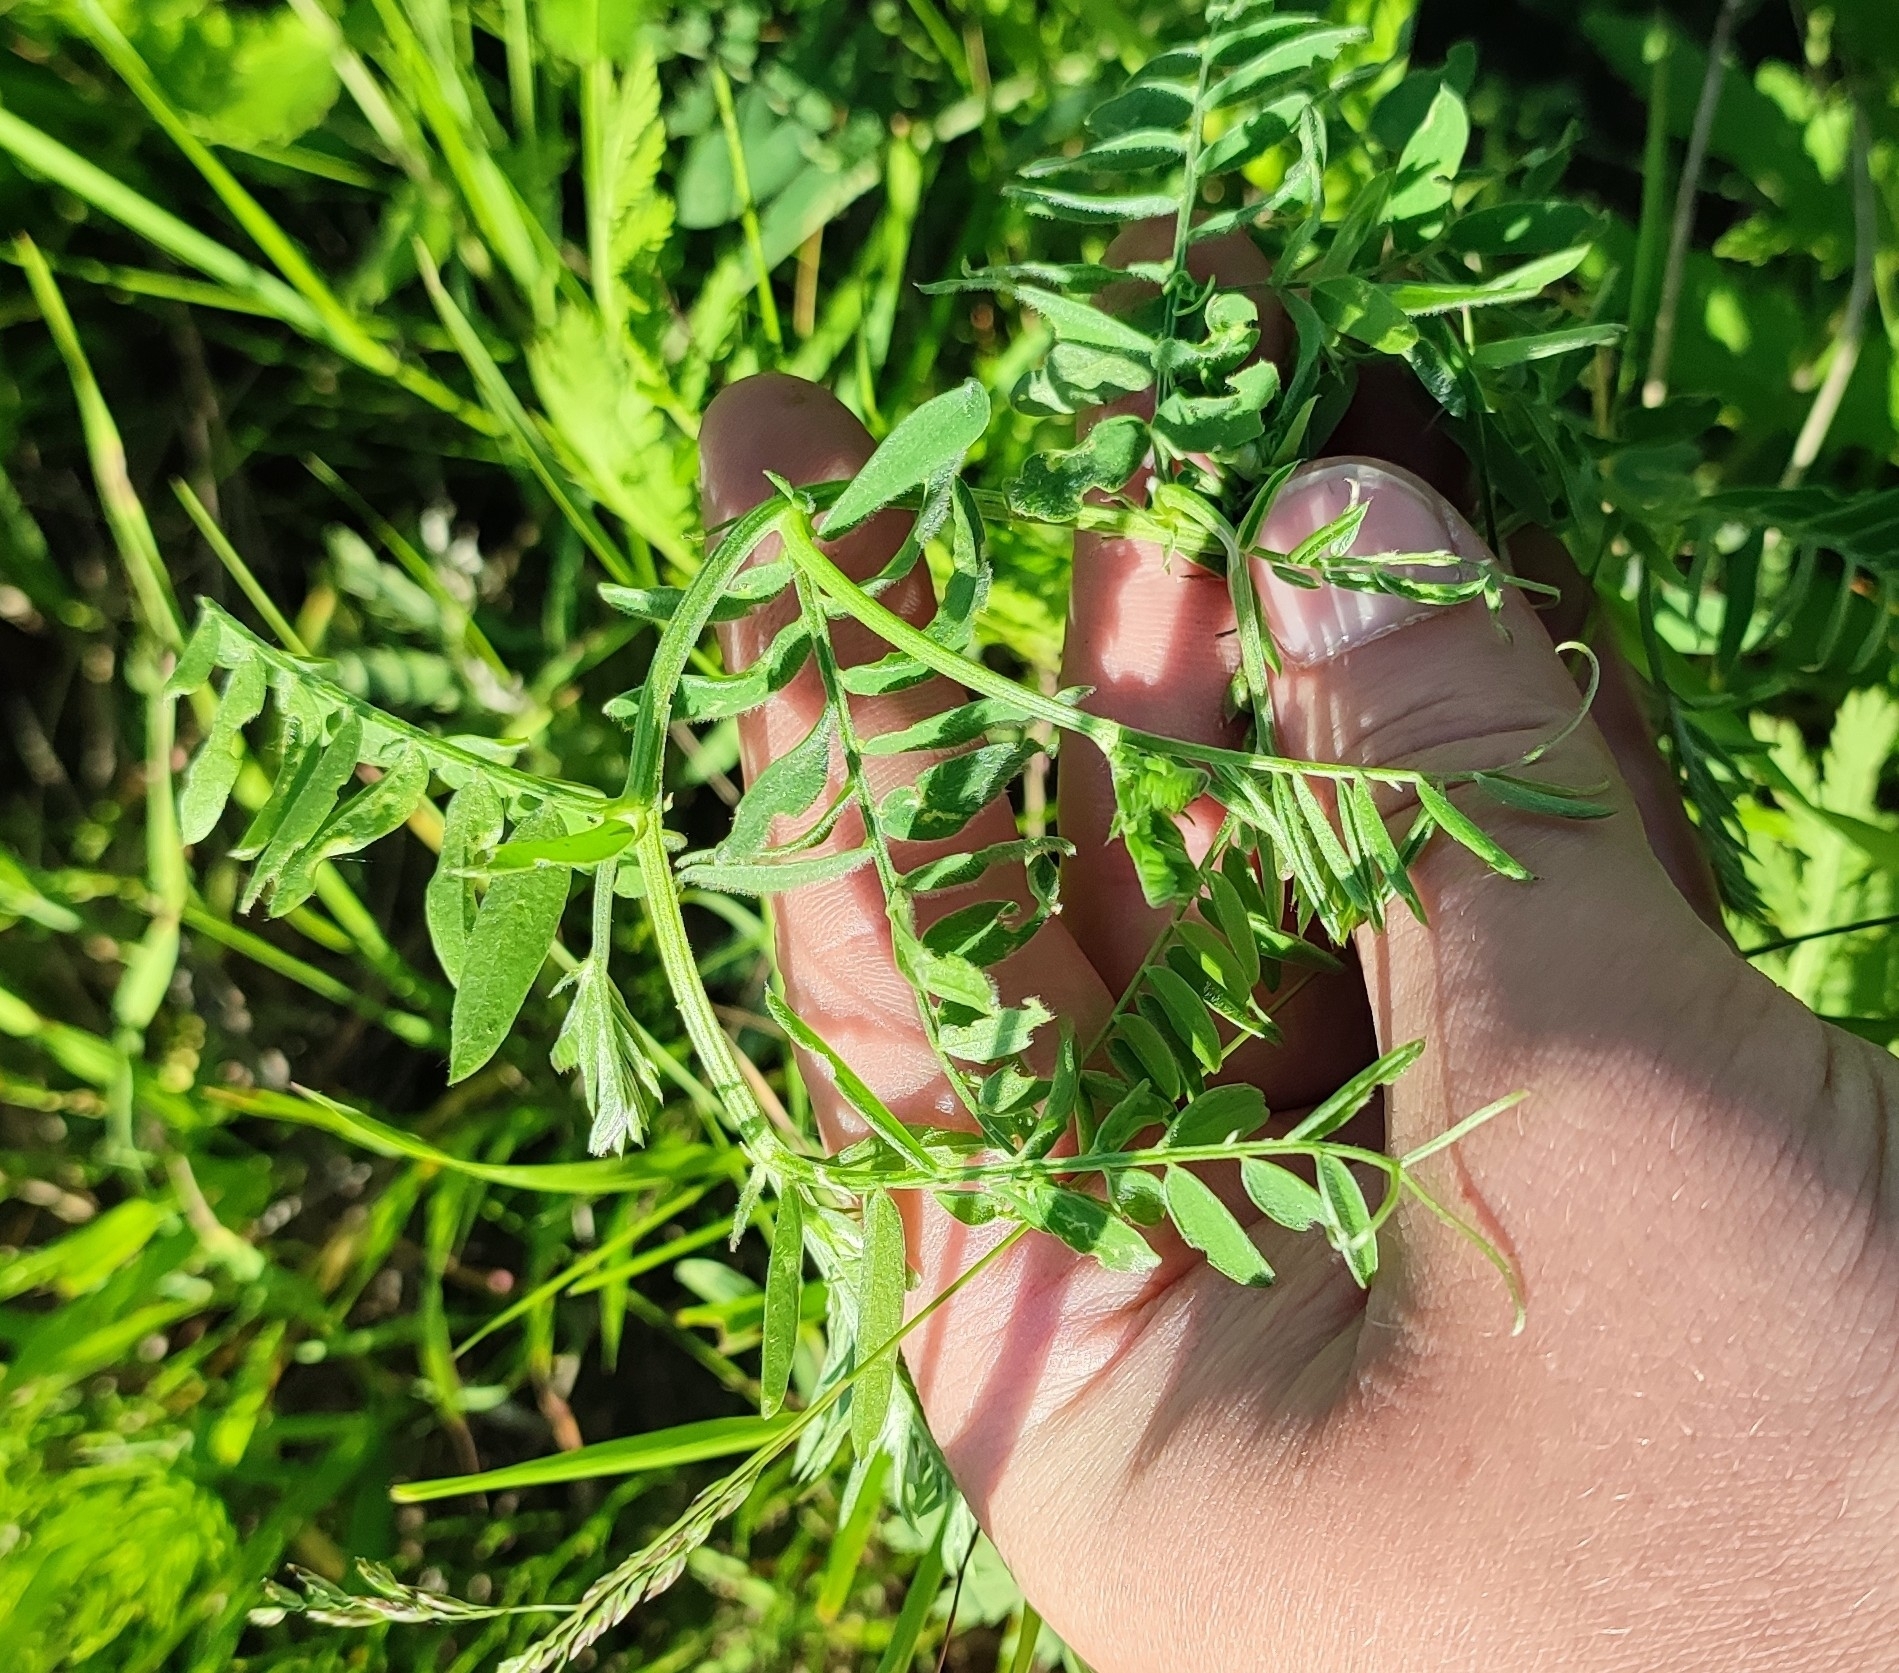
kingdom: Plantae
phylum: Tracheophyta
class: Magnoliopsida
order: Fabales
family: Fabaceae
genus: Vicia
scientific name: Vicia cracca
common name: Bird vetch
